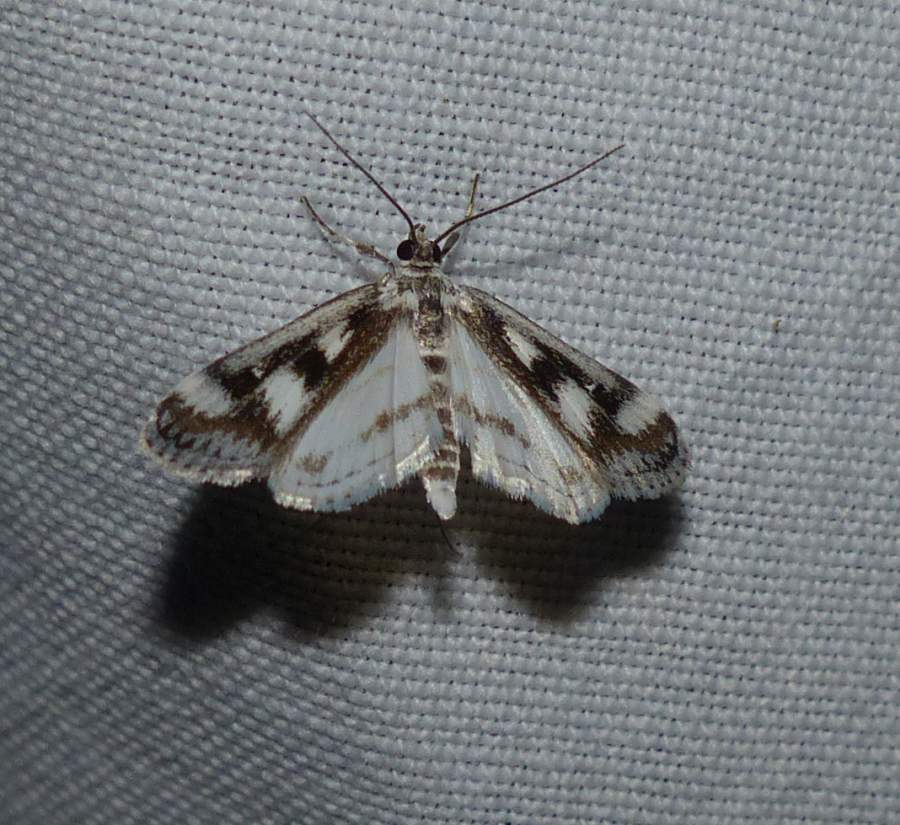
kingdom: Animalia
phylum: Arthropoda
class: Insecta
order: Lepidoptera
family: Crambidae
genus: Parapoynx
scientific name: Parapoynx maculalis
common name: Polymorphic pondweed moth
